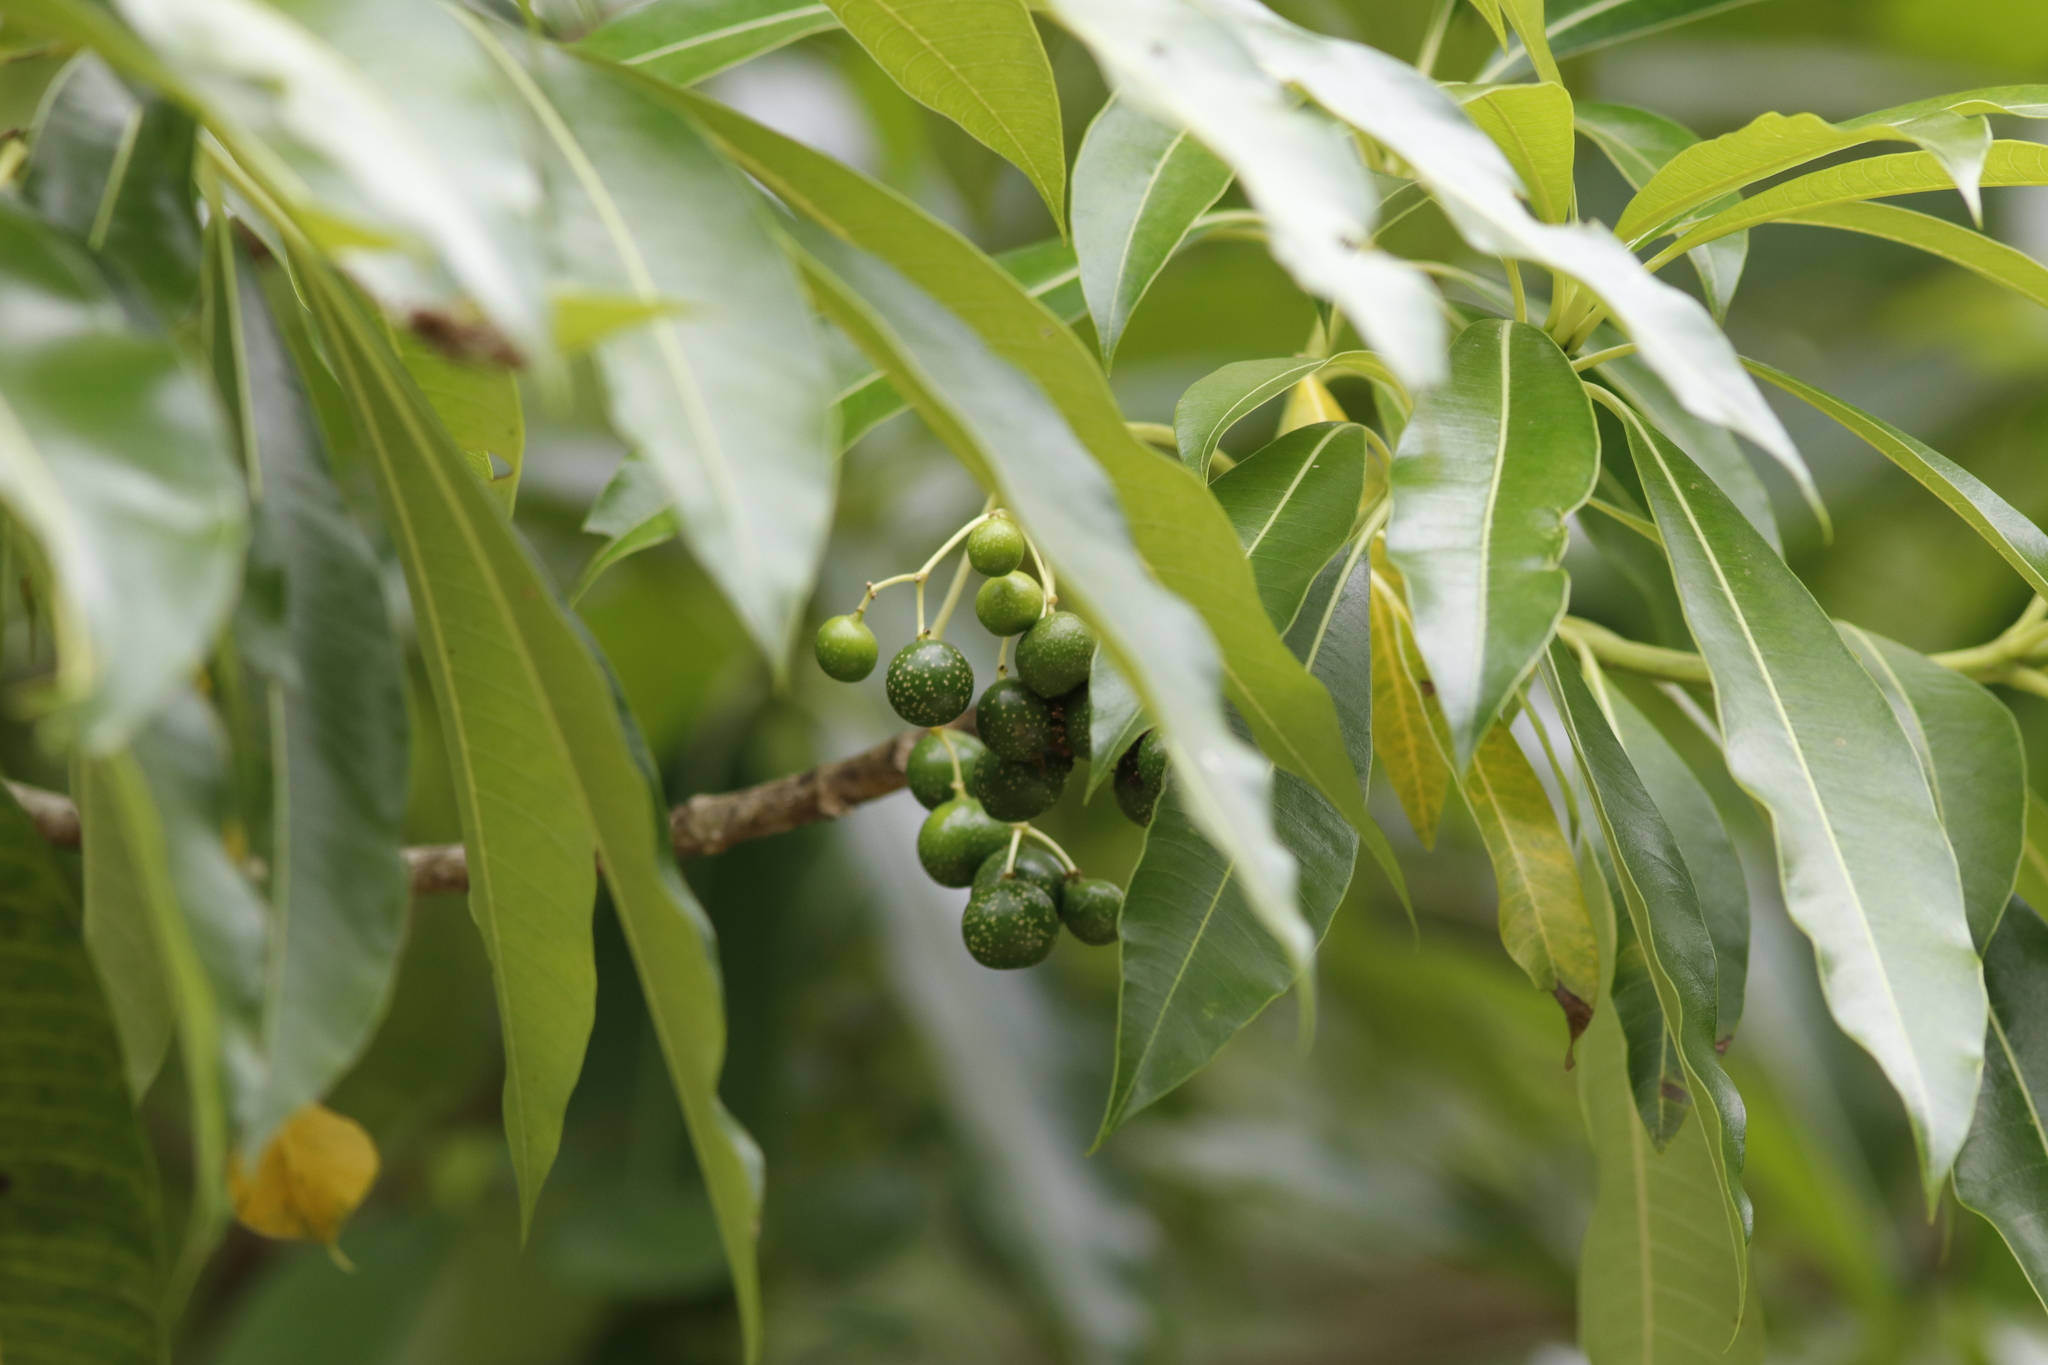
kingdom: Plantae
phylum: Tracheophyta
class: Magnoliopsida
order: Gentianales
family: Apocynaceae
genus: Rauvolfia
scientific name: Rauvolfia caffra
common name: Quininetree
